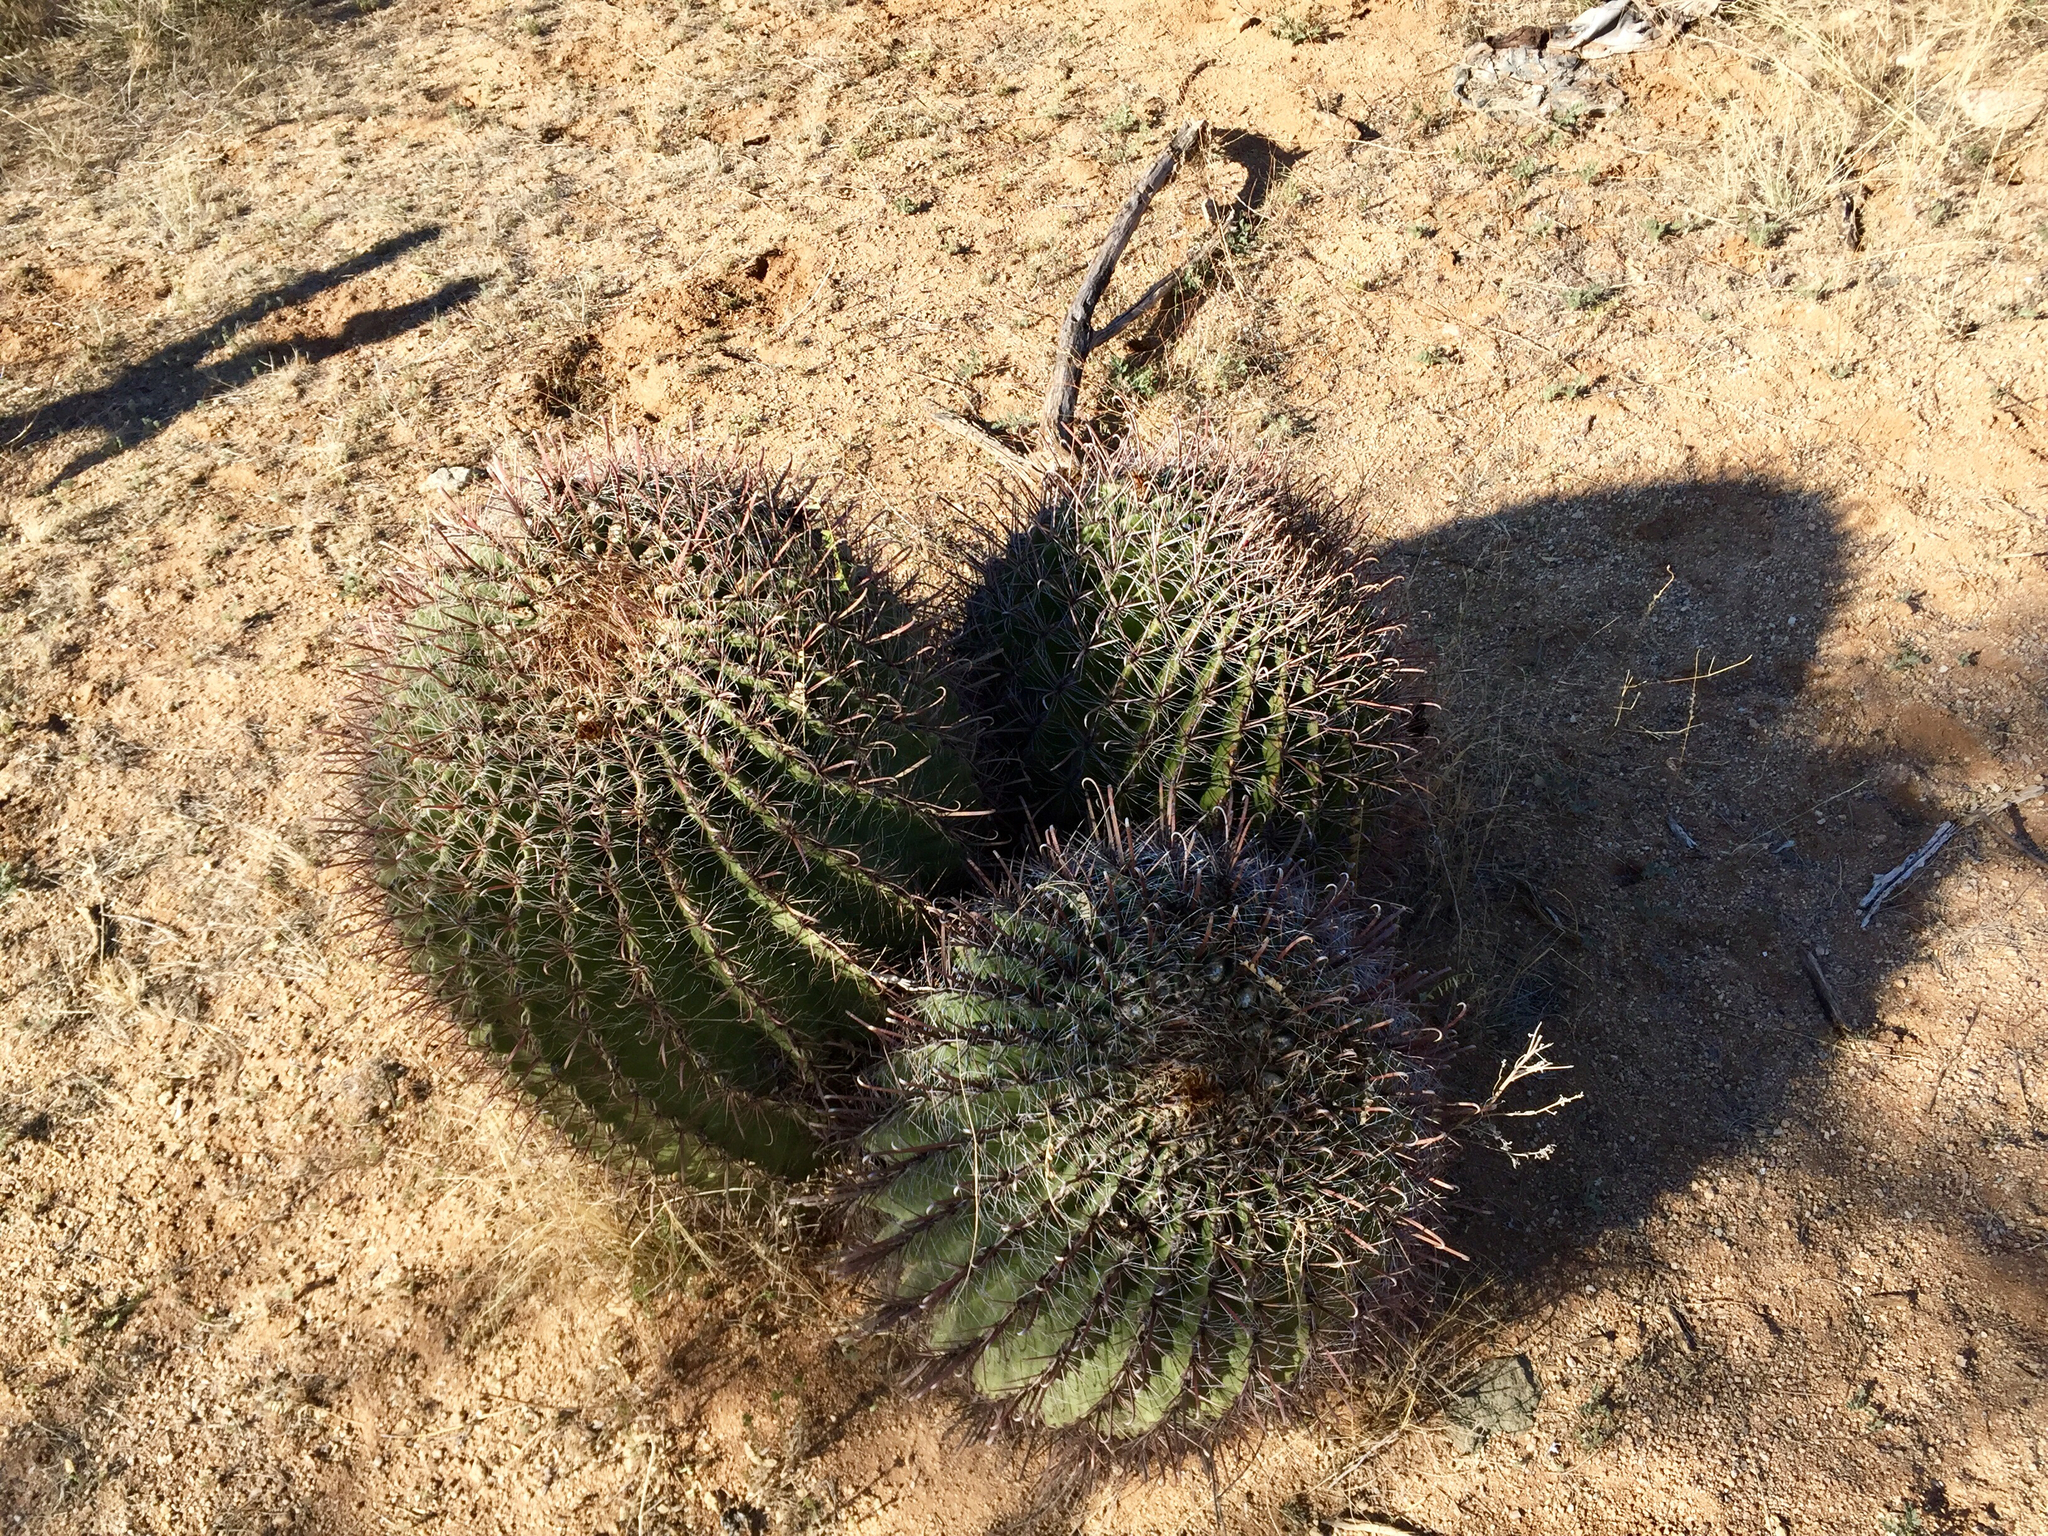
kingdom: Plantae
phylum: Tracheophyta
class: Magnoliopsida
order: Caryophyllales
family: Cactaceae
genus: Ferocactus
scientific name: Ferocactus wislizeni
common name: Candy barrel cactus
